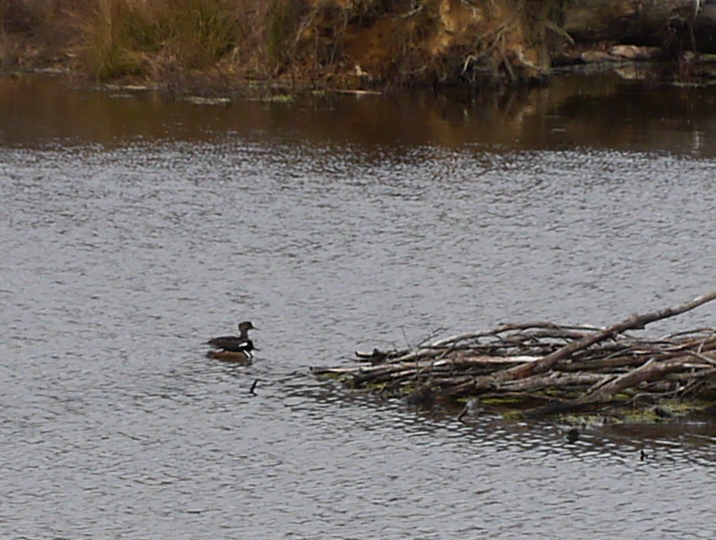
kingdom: Animalia
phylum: Chordata
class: Aves
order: Anseriformes
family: Anatidae
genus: Lophodytes
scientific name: Lophodytes cucullatus
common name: Hooded merganser
